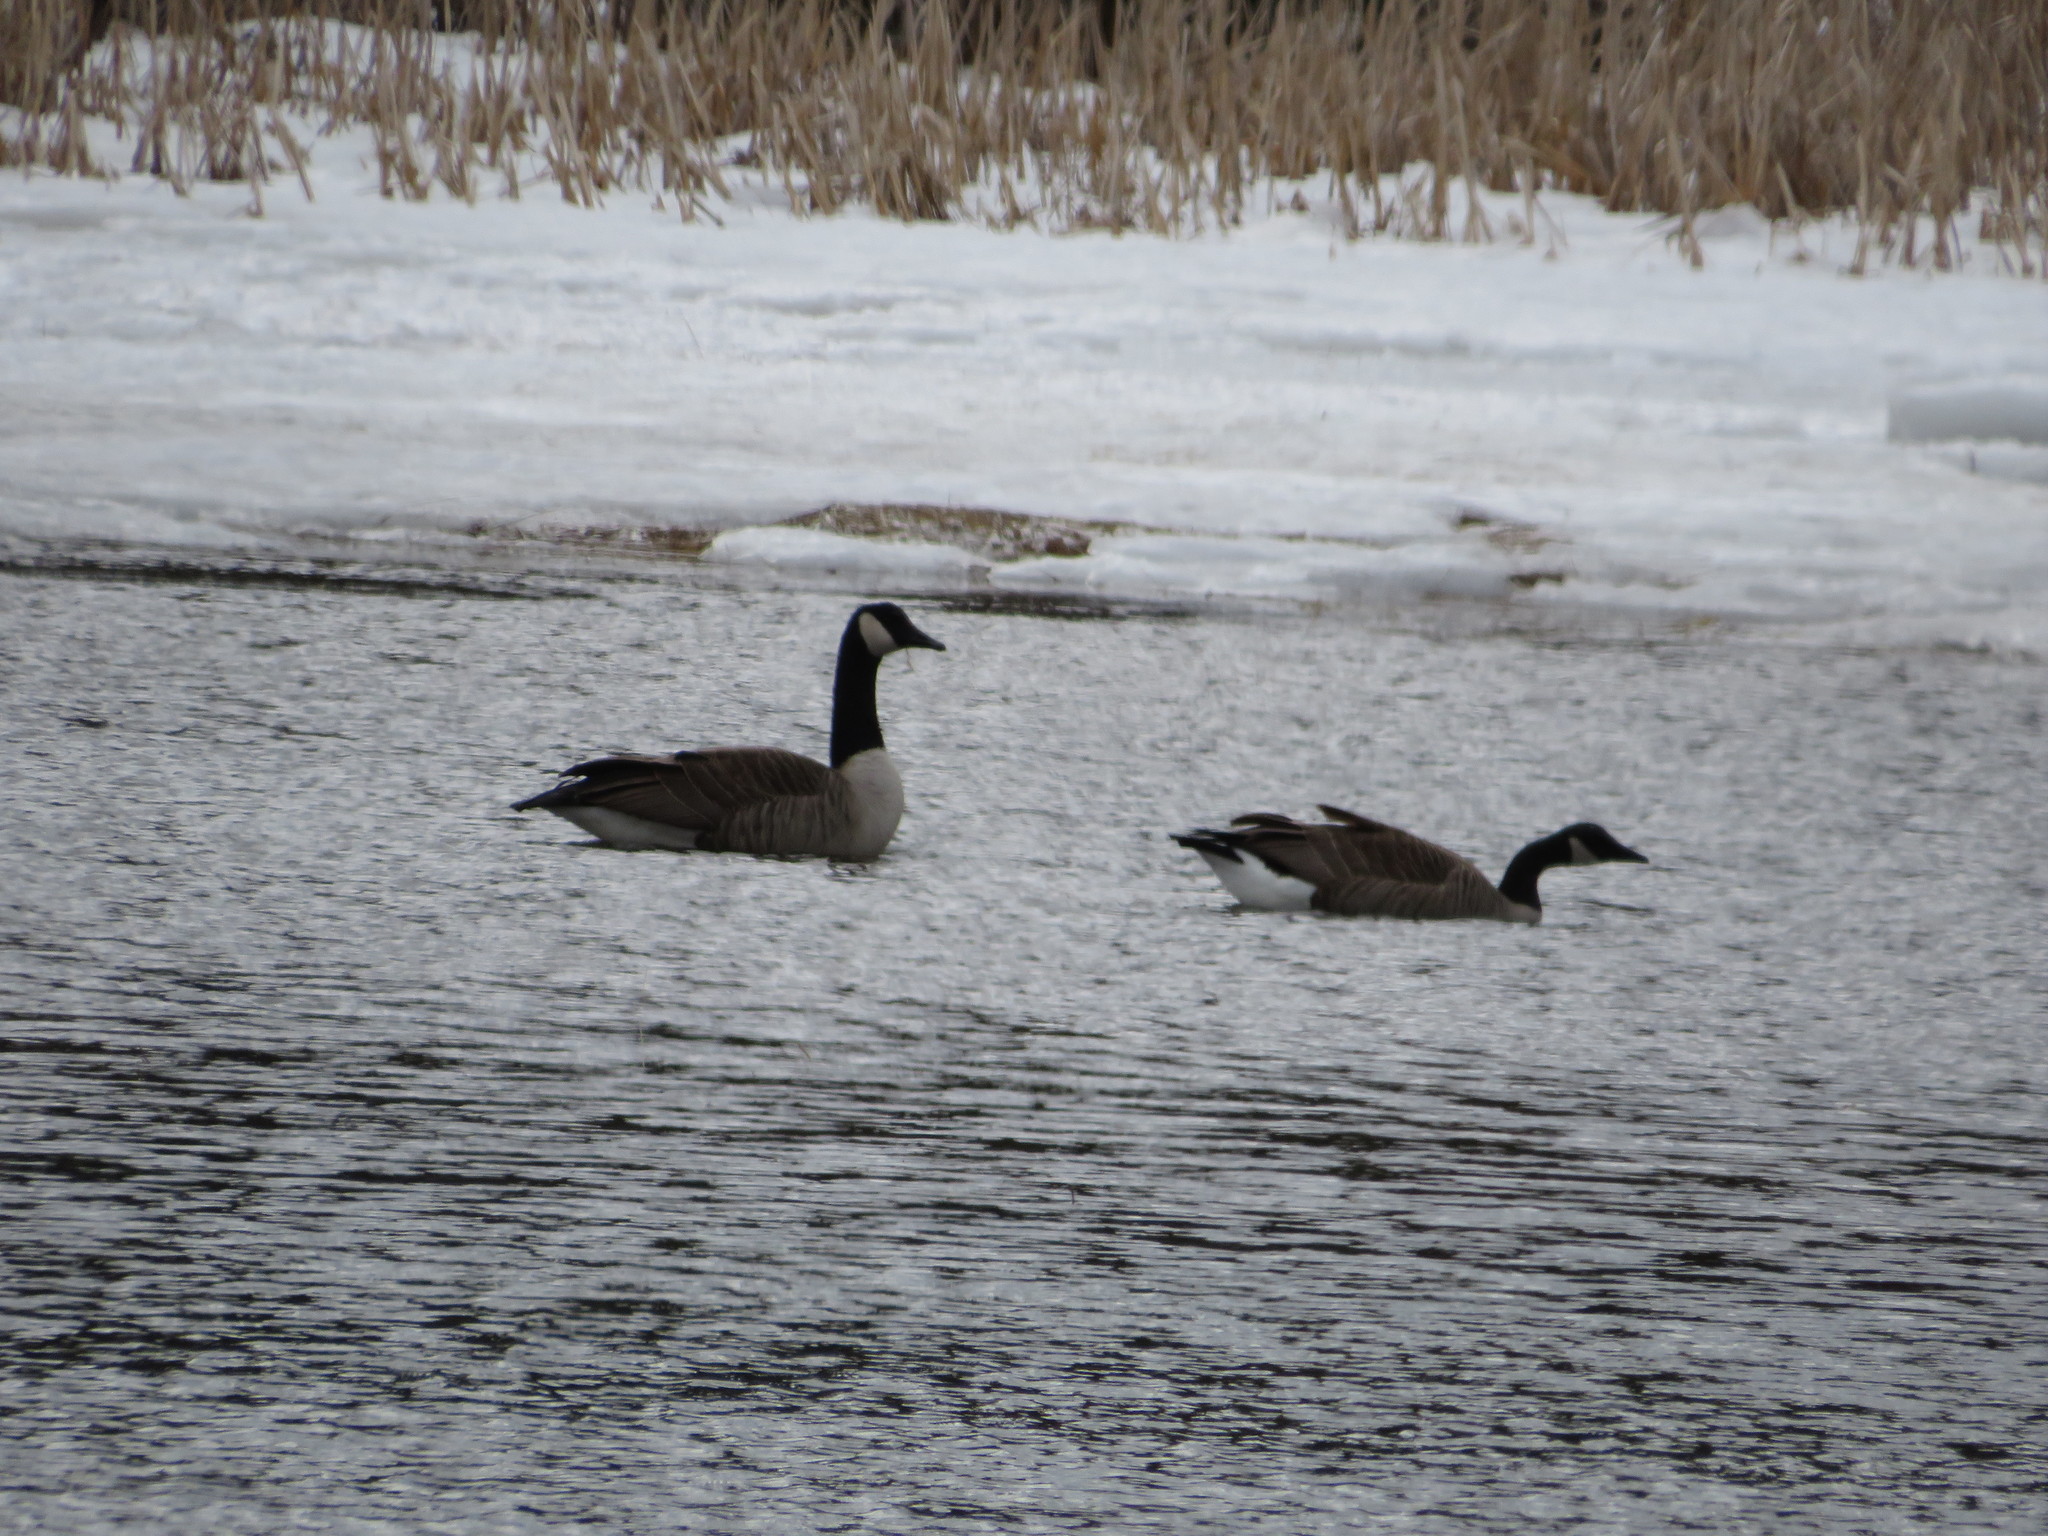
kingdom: Animalia
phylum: Chordata
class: Aves
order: Anseriformes
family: Anatidae
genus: Branta
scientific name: Branta canadensis
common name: Canada goose
